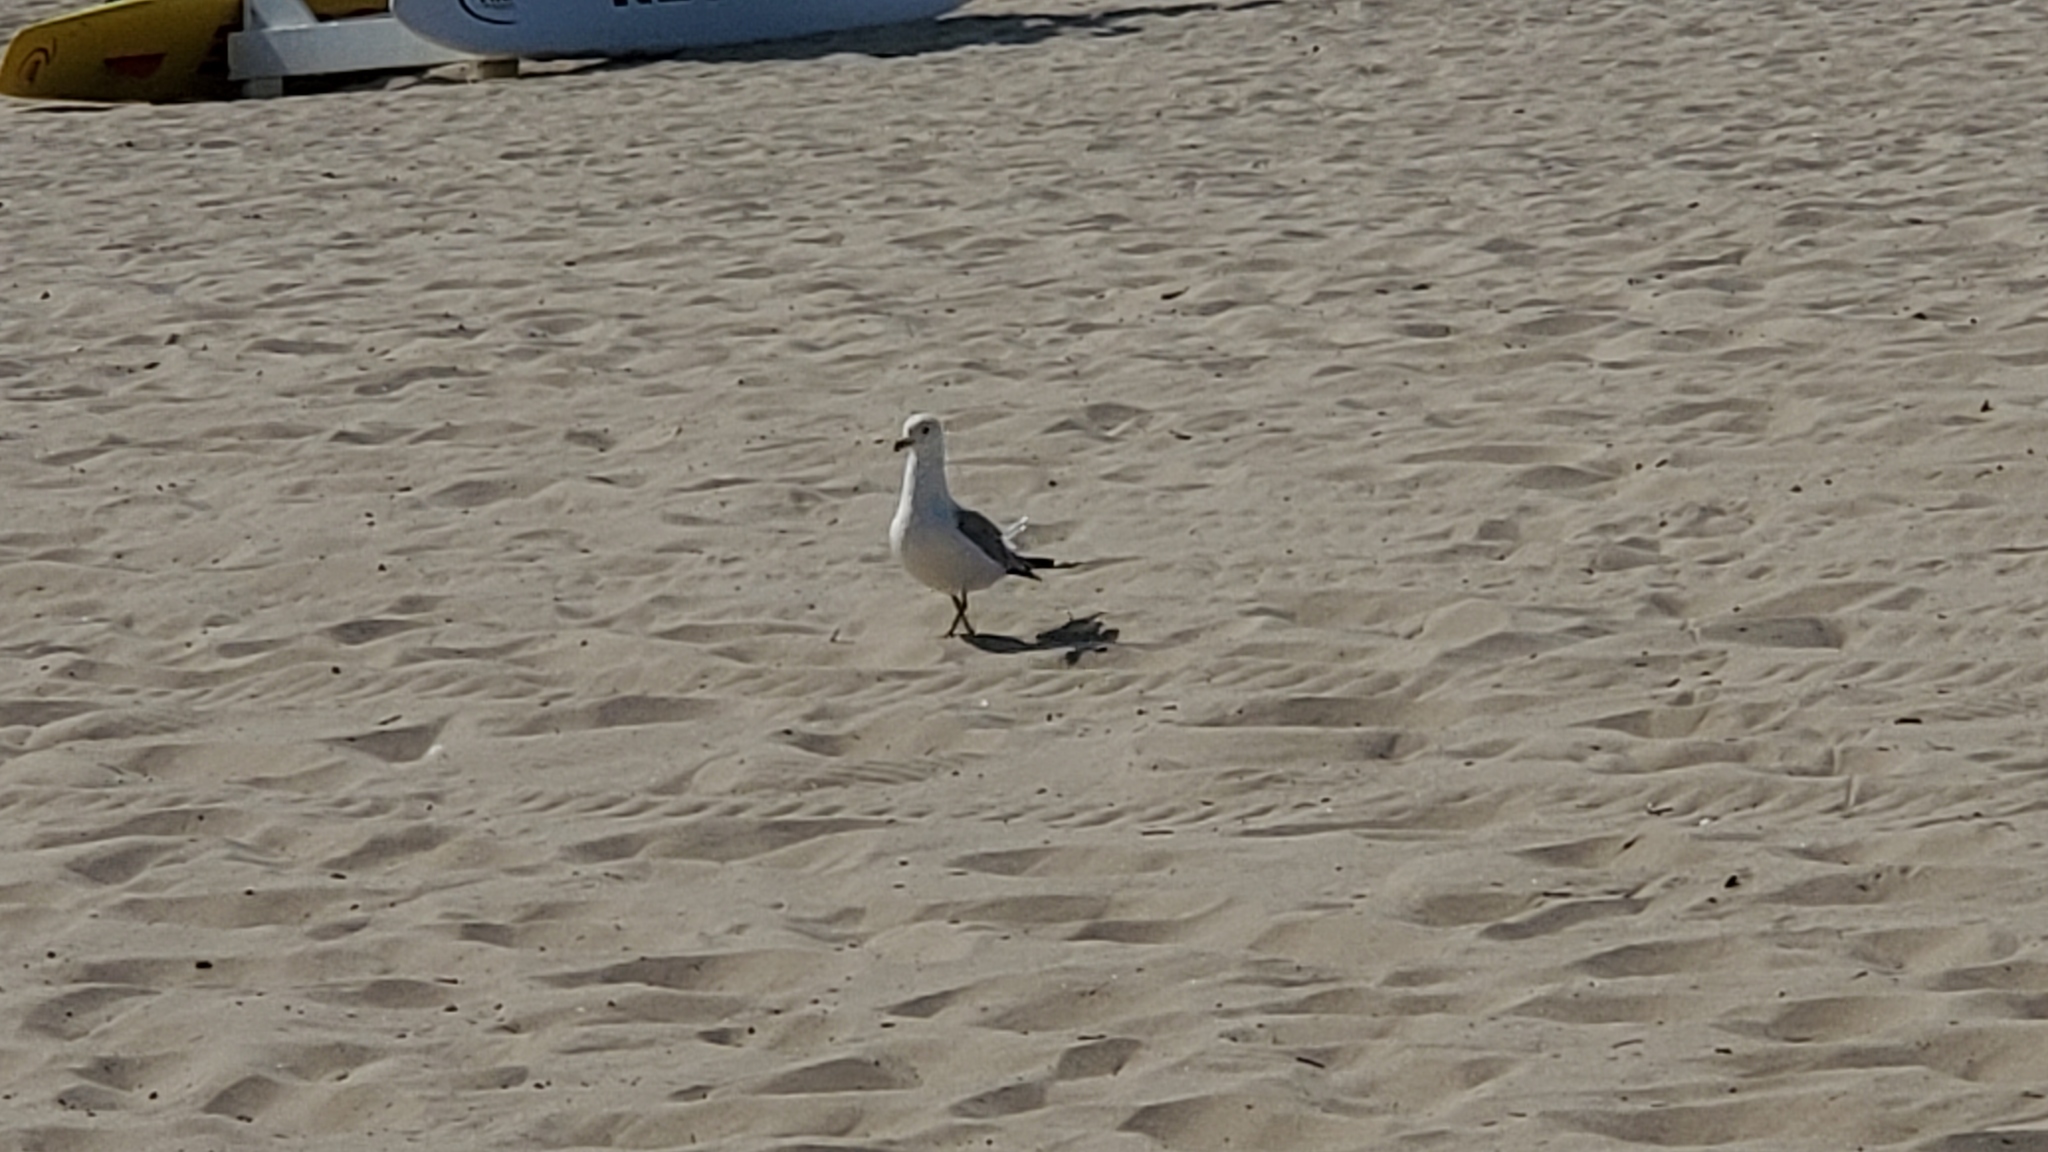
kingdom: Animalia
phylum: Chordata
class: Aves
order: Charadriiformes
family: Laridae
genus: Larus
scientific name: Larus delawarensis
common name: Ring-billed gull
